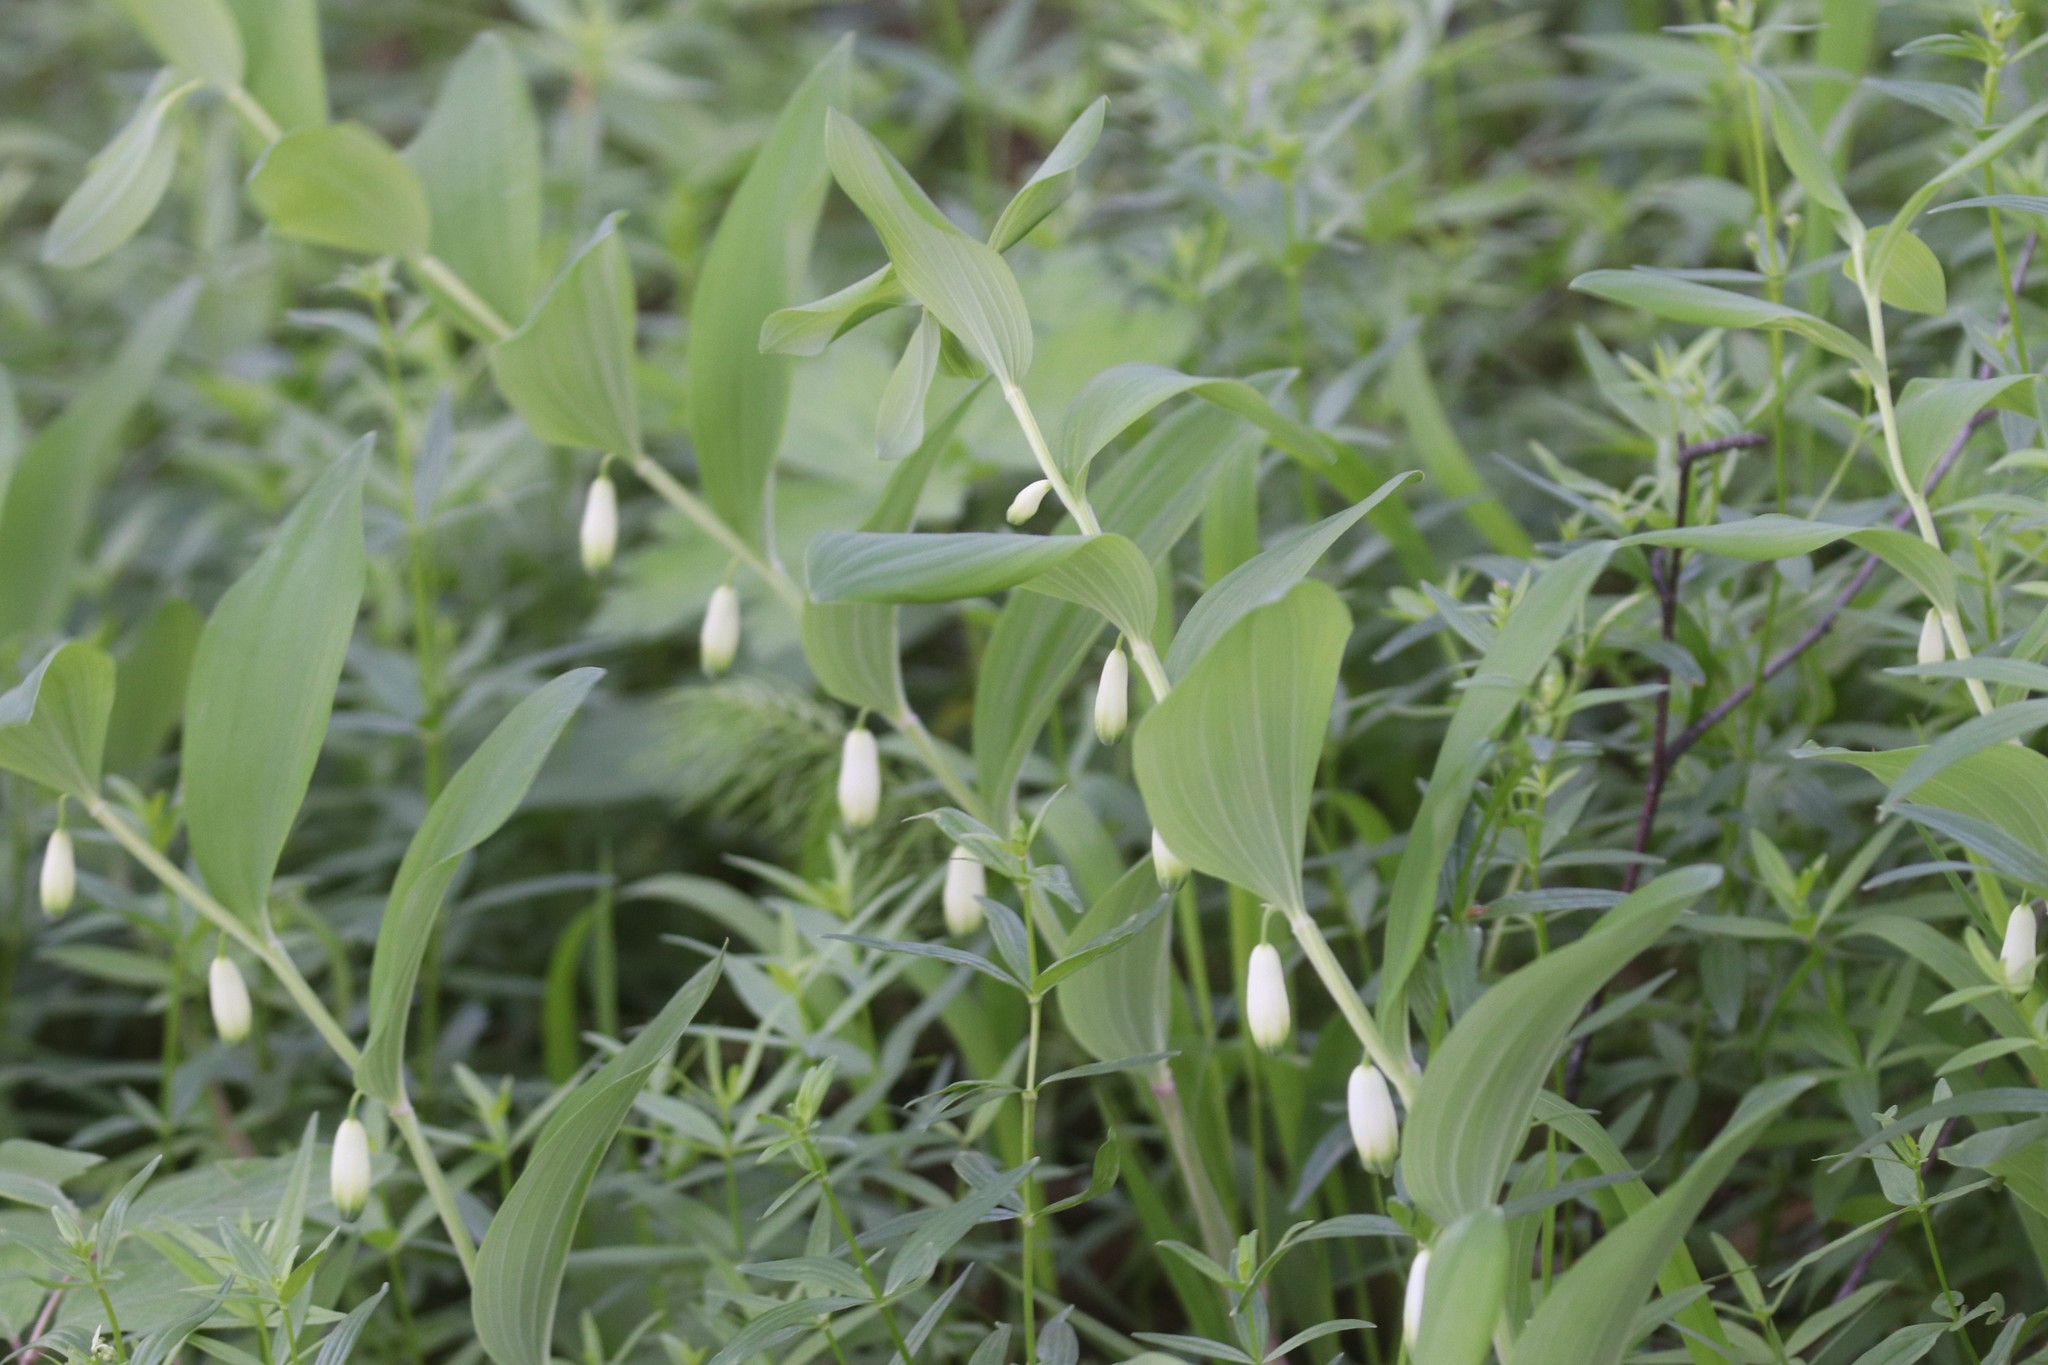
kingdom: Plantae
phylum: Tracheophyta
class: Liliopsida
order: Asparagales
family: Asparagaceae
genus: Polygonatum
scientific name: Polygonatum odoratum
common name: Angular solomon's-seal
